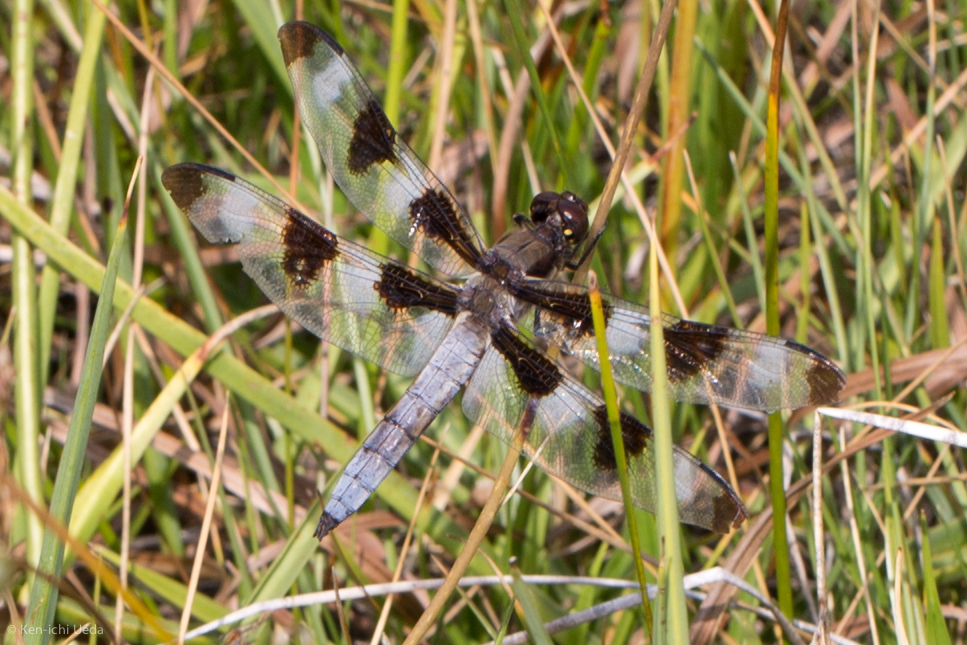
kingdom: Animalia
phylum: Arthropoda
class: Insecta
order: Odonata
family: Libellulidae
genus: Libellula
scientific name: Libellula pulchella
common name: Twelve-spotted skimmer
